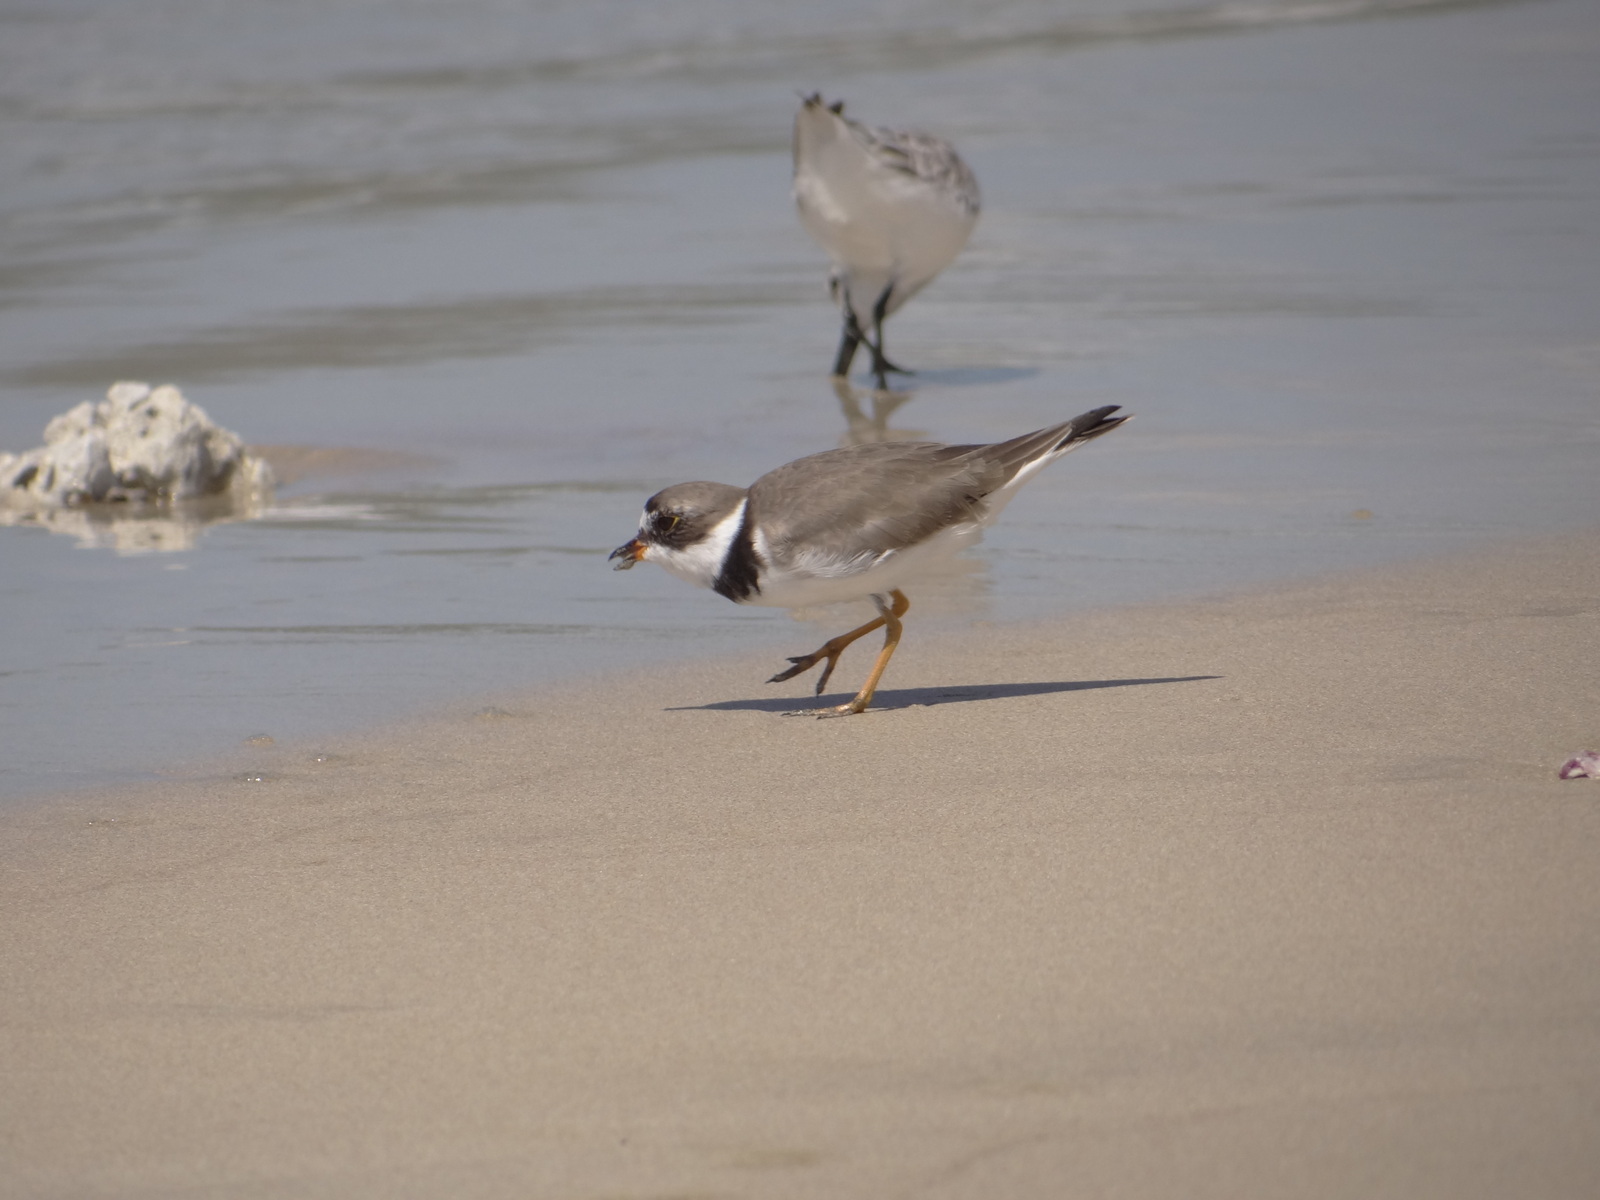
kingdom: Animalia
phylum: Chordata
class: Aves
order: Charadriiformes
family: Charadriidae
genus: Charadrius
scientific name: Charadrius semipalmatus
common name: Semipalmated plover
